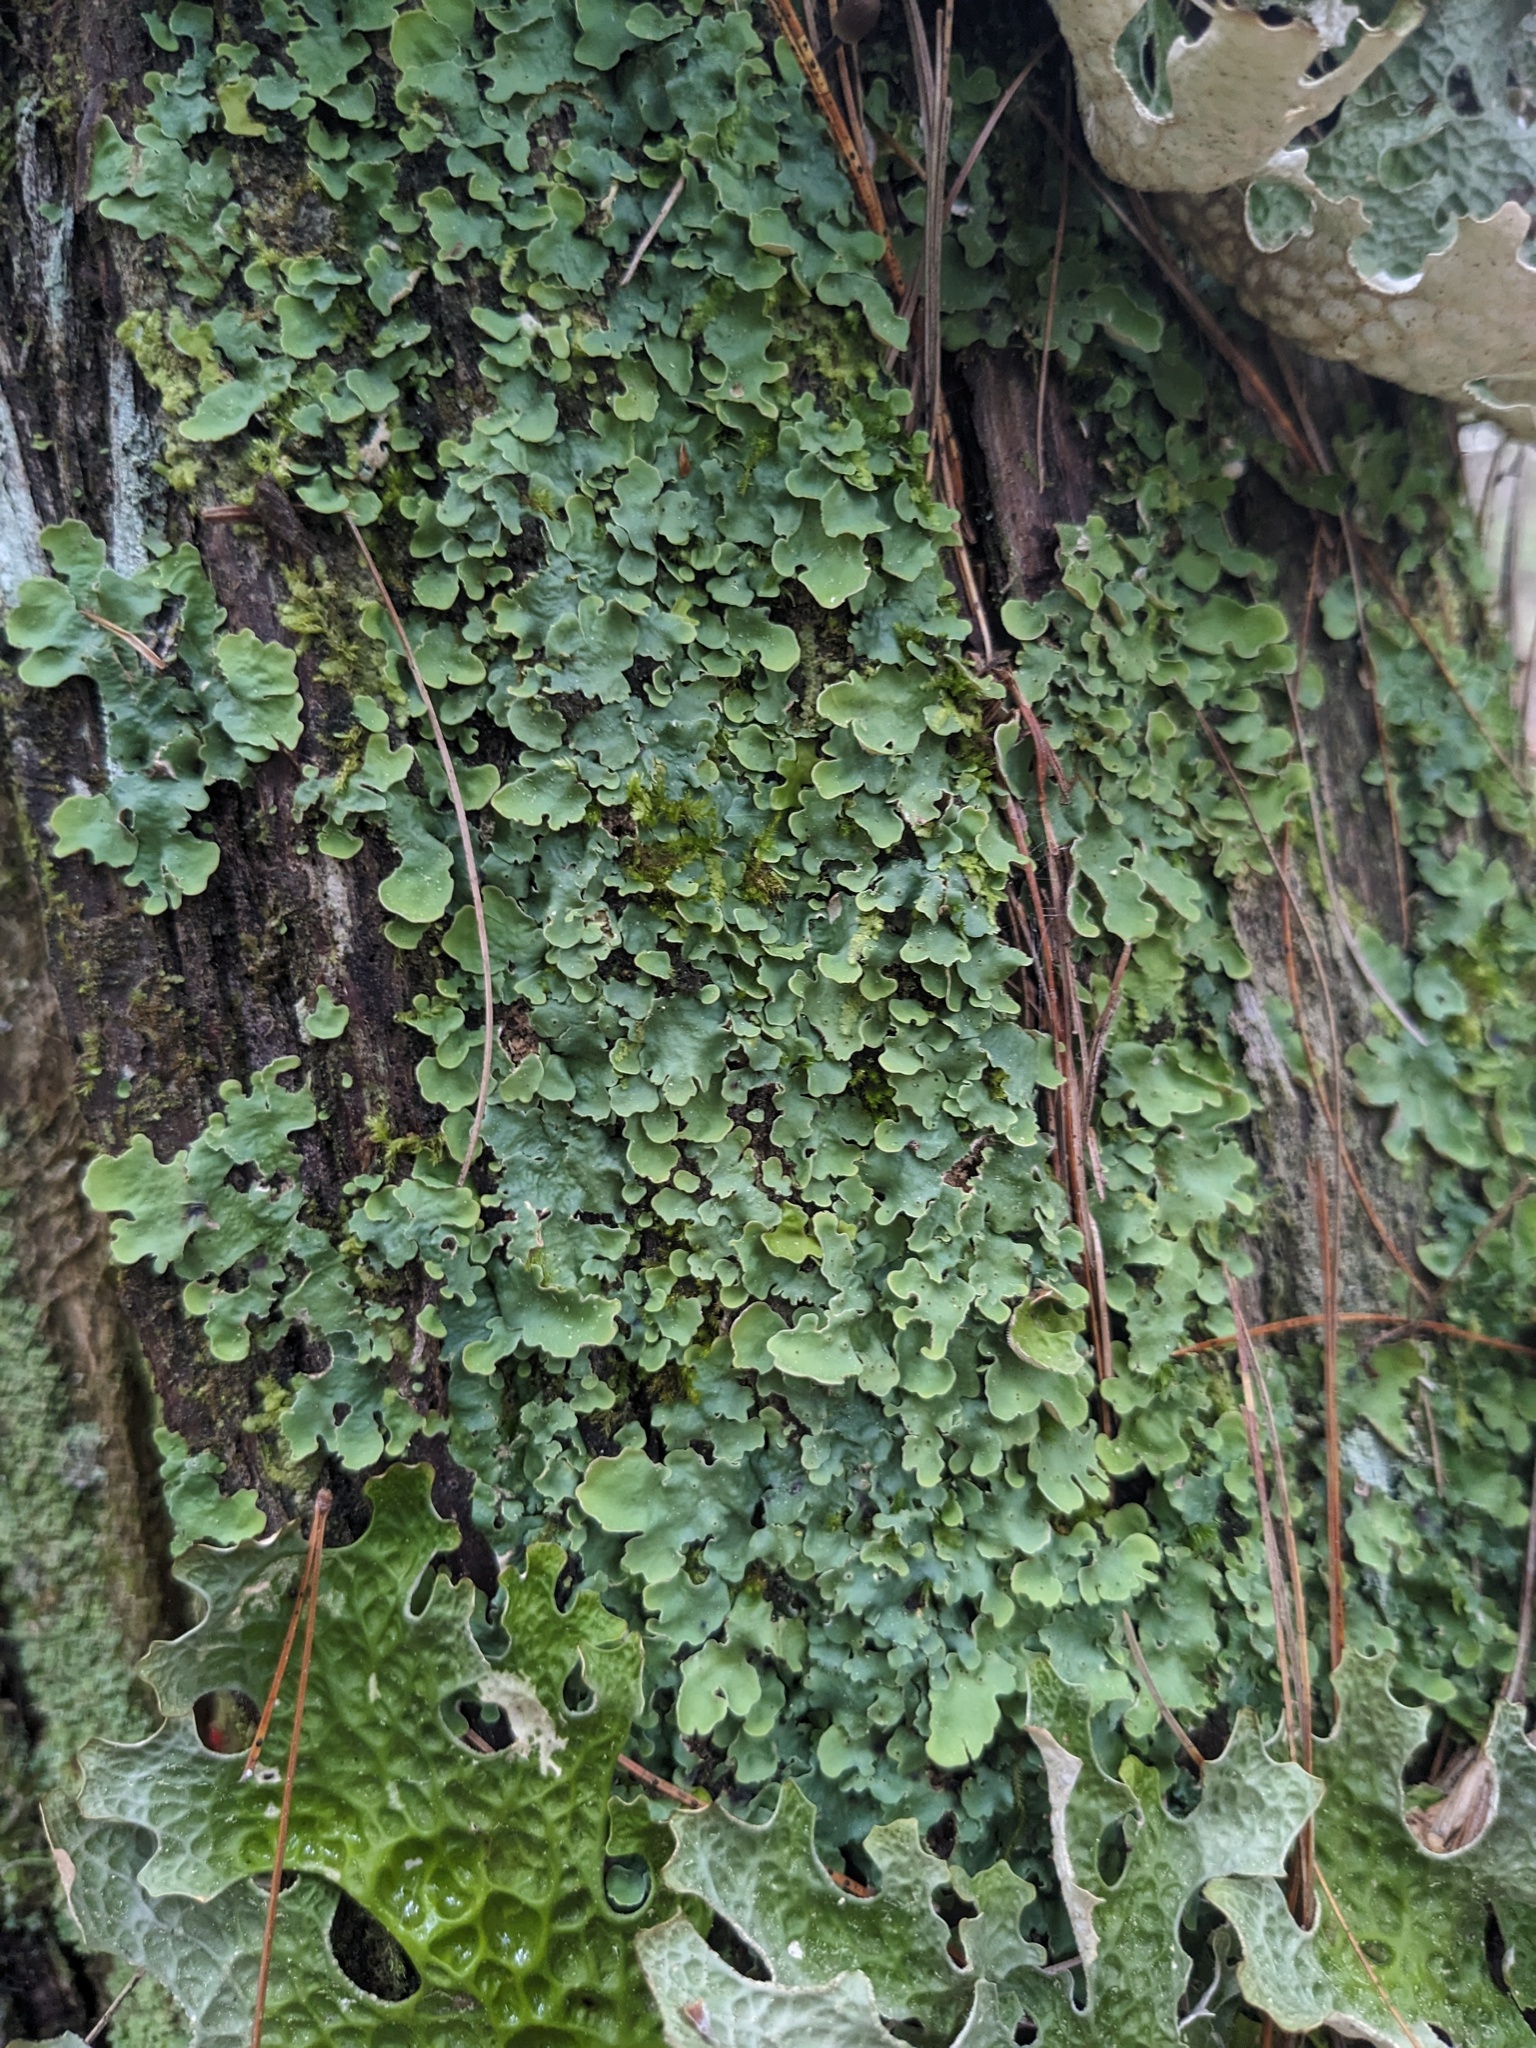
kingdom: Fungi
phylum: Ascomycota
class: Lecanoromycetes
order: Peltigerales
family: Lobariaceae
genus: Ricasolia
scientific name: Ricasolia quercizans
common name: Smooth lungwort
